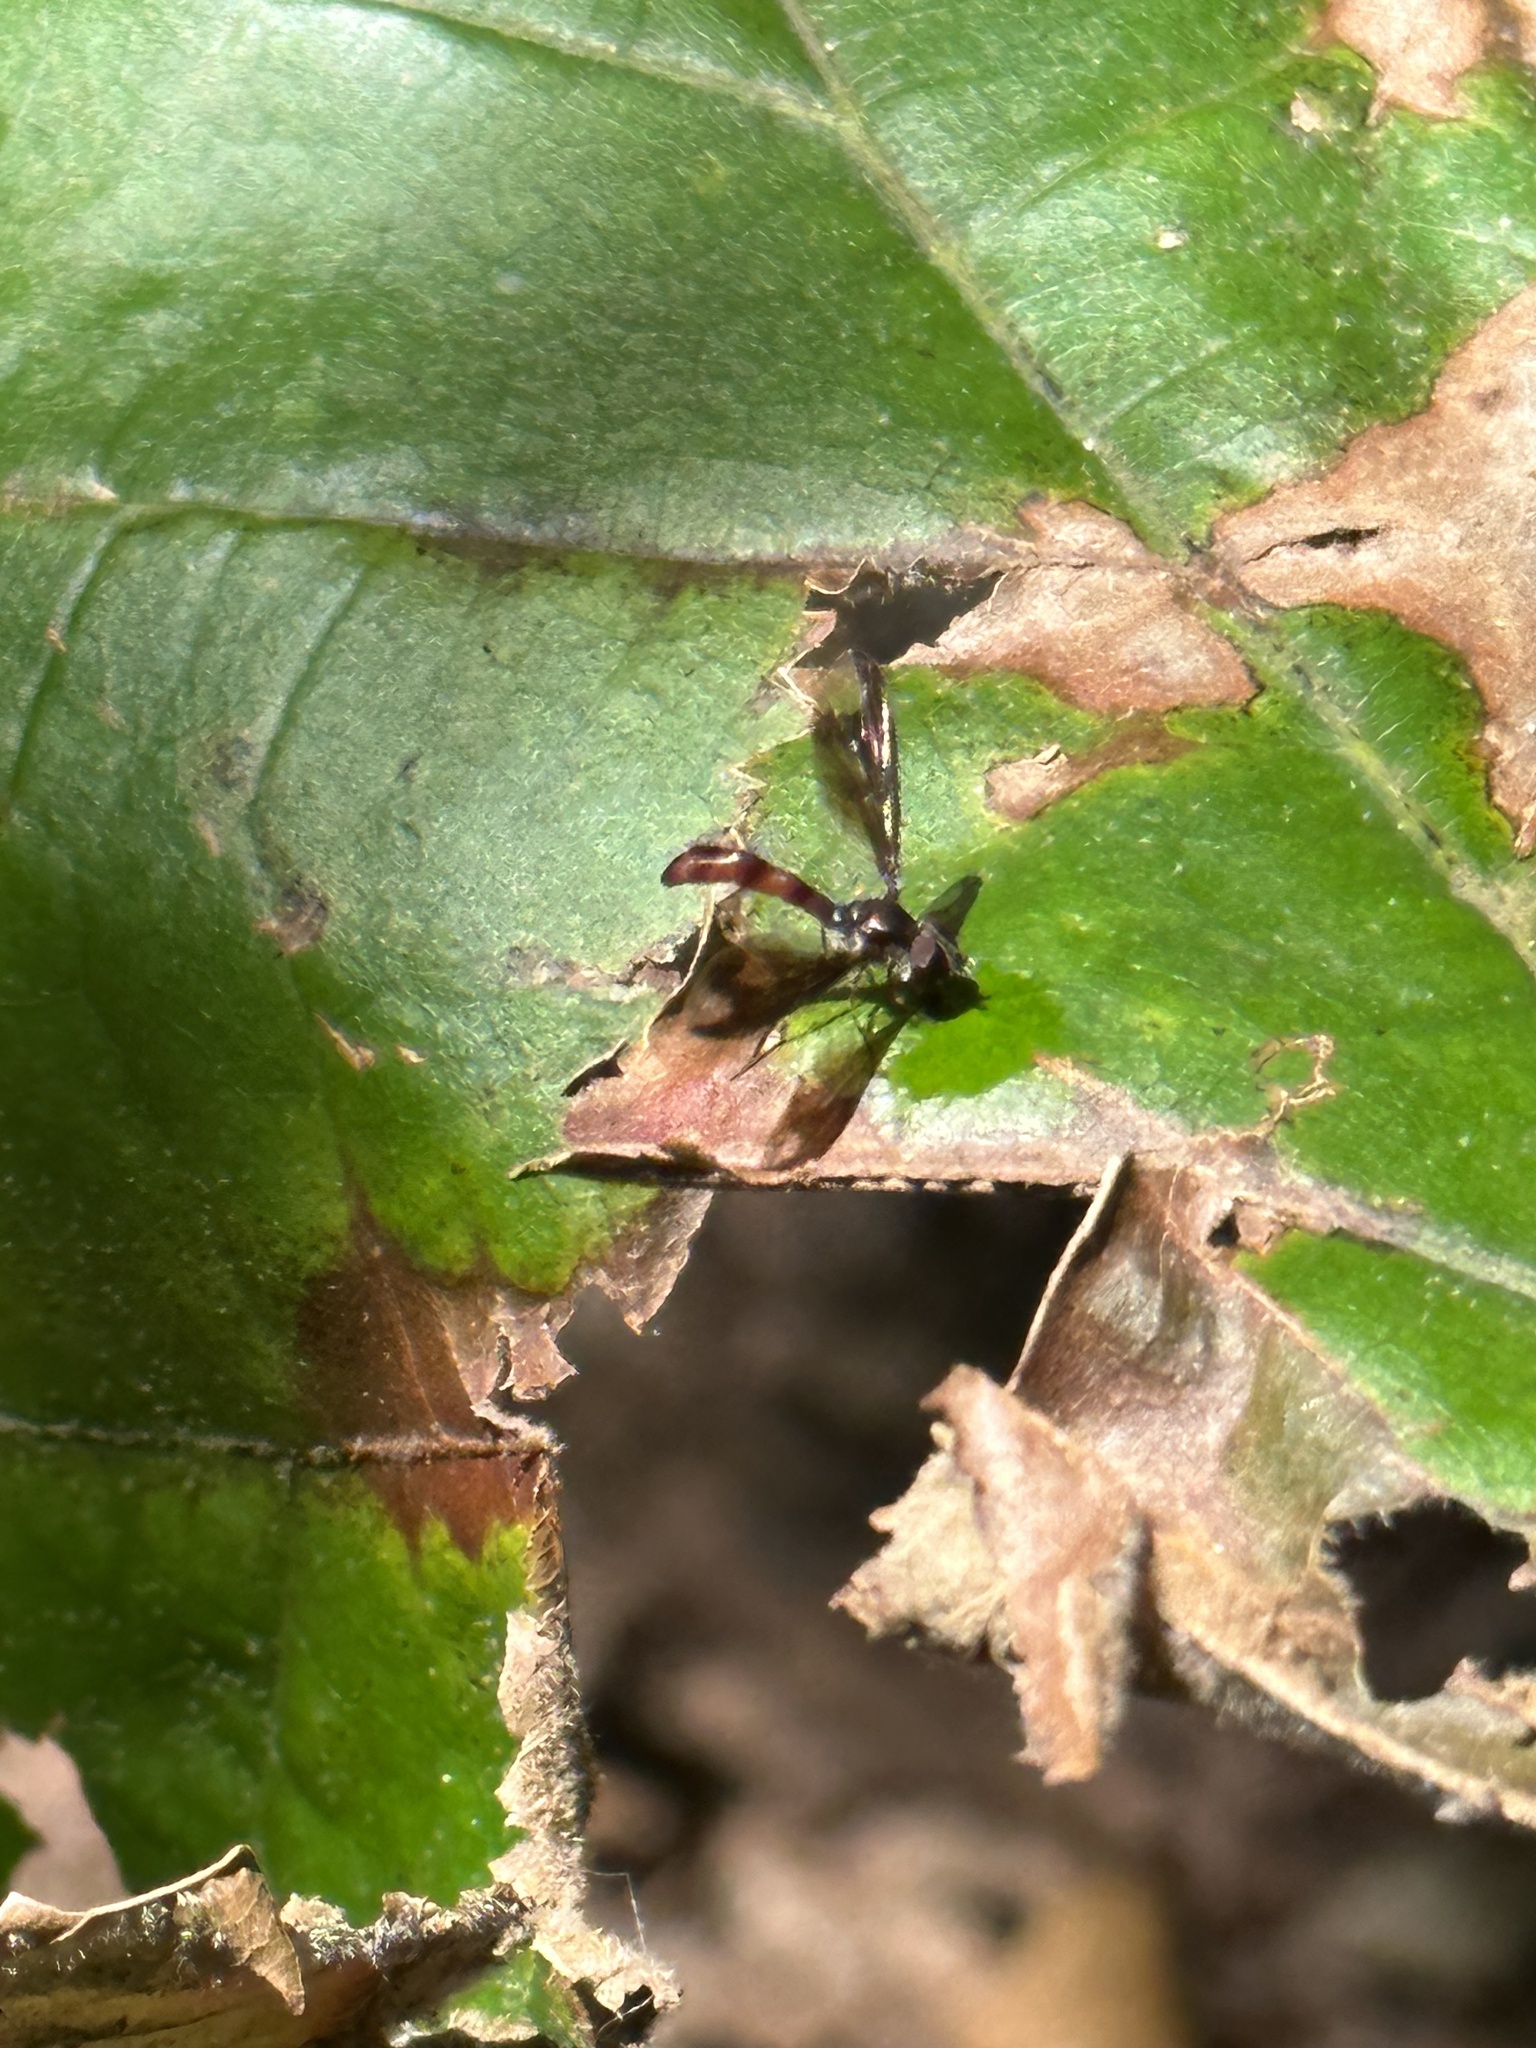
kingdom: Animalia
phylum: Arthropoda
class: Insecta
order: Diptera
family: Syrphidae
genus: Ocyptamus
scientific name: Ocyptamus fuscipennis
